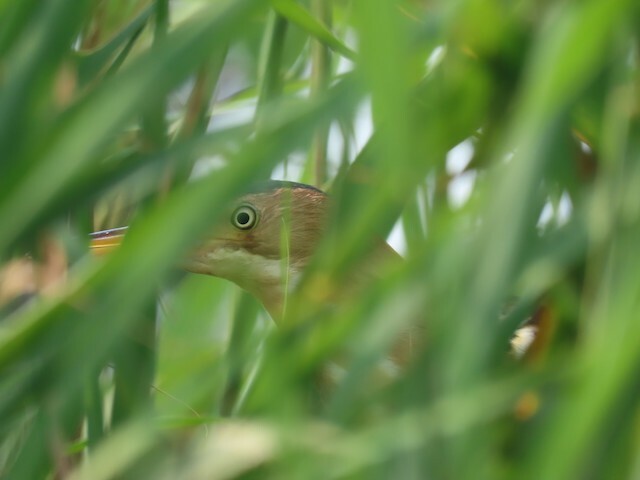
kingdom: Animalia
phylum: Chordata
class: Aves
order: Pelecaniformes
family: Ardeidae
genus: Ixobrychus
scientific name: Ixobrychus exilis
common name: Least bittern
